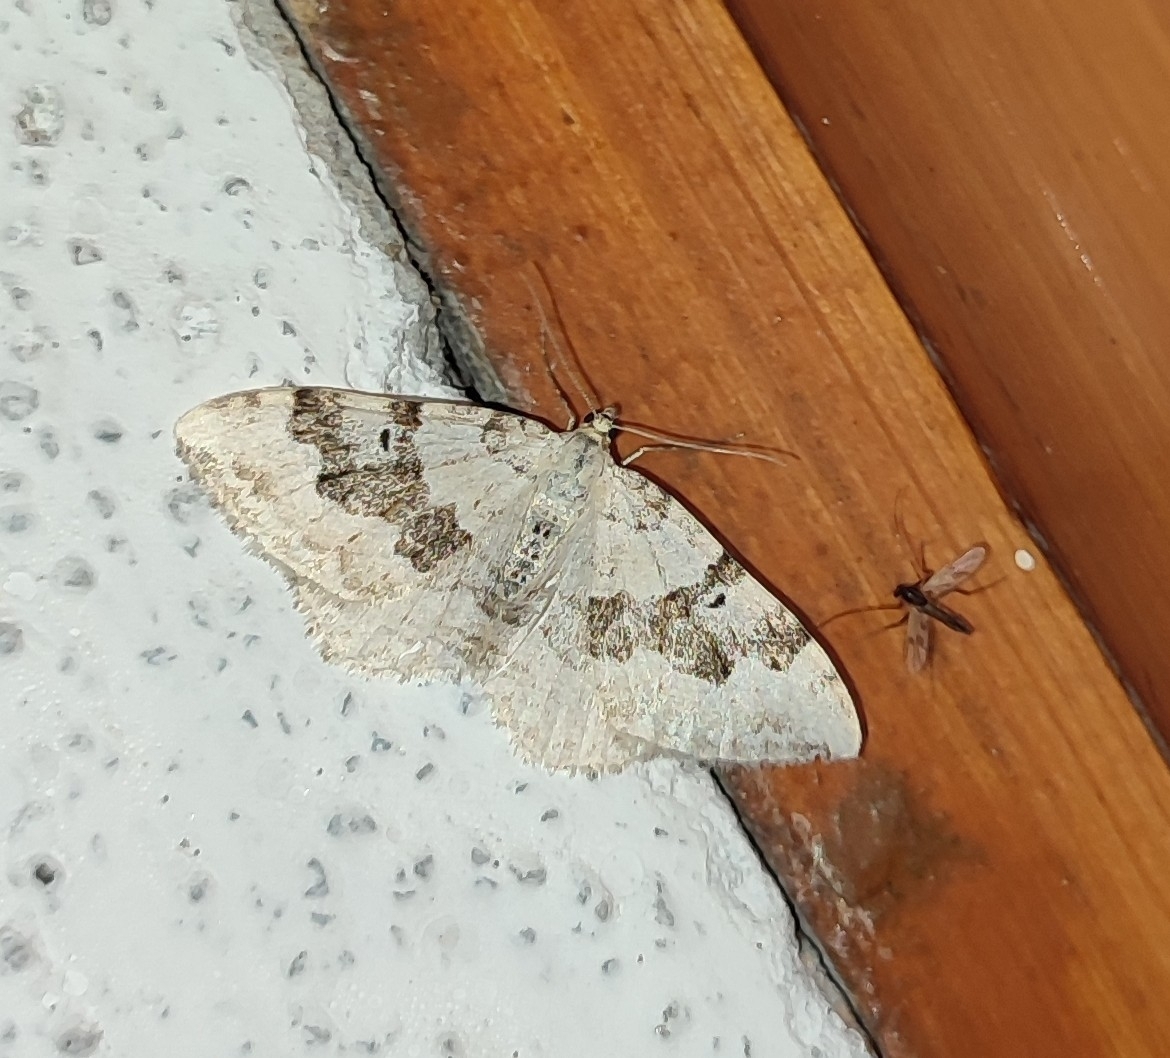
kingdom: Animalia
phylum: Arthropoda
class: Insecta
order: Lepidoptera
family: Geometridae
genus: Xanthorhoe
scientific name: Xanthorhoe montanata
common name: Silver-ground carpet
